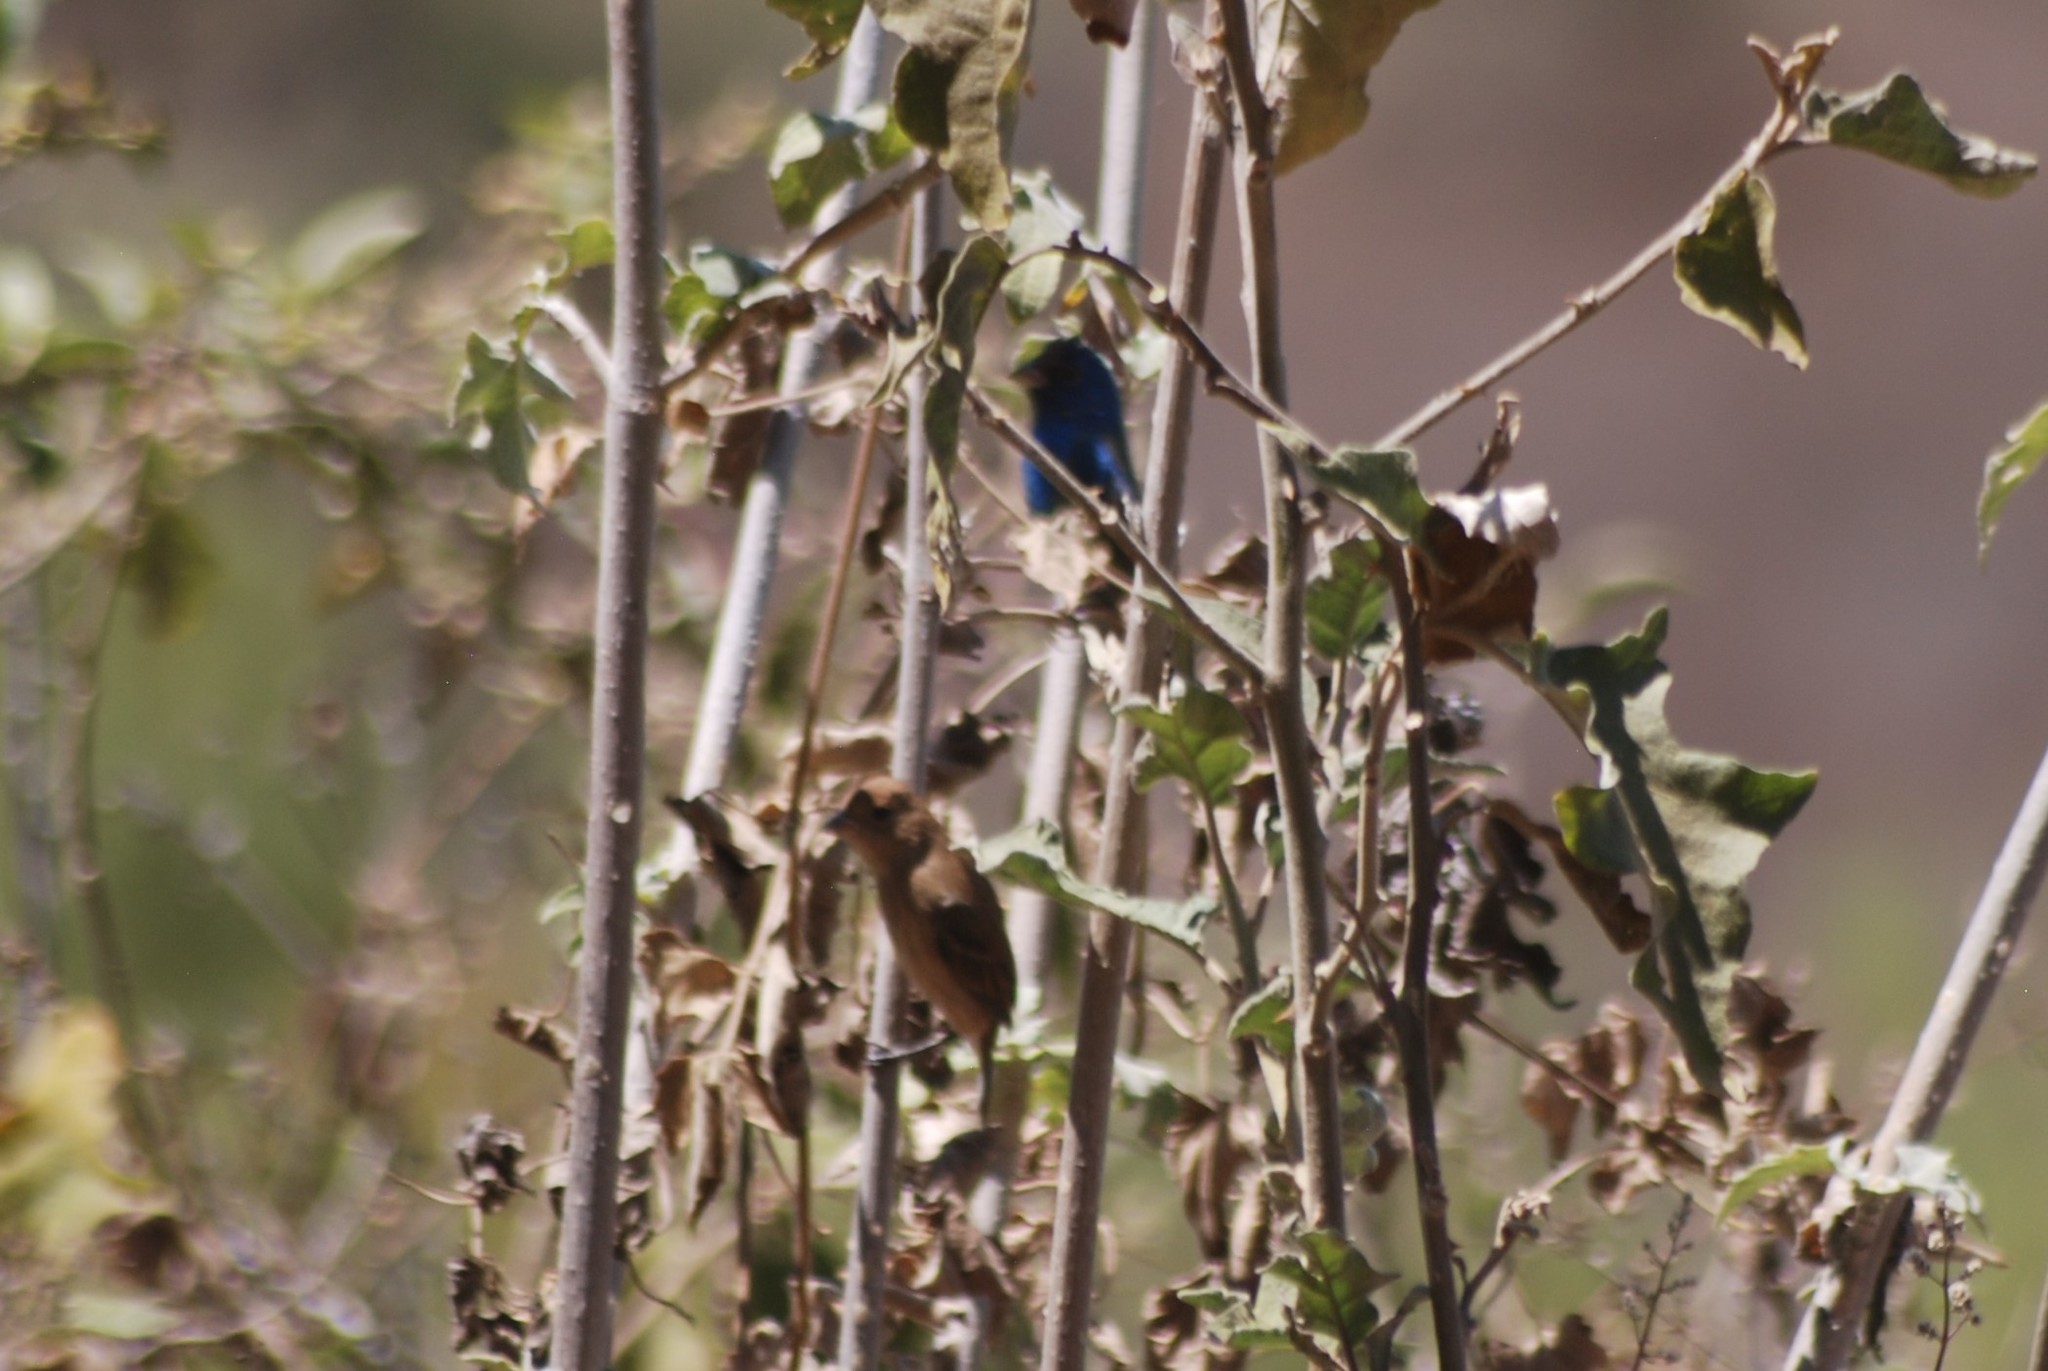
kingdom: Animalia
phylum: Chordata
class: Aves
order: Passeriformes
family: Cardinalidae
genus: Passerina
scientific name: Passerina cyanea
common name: Indigo bunting
